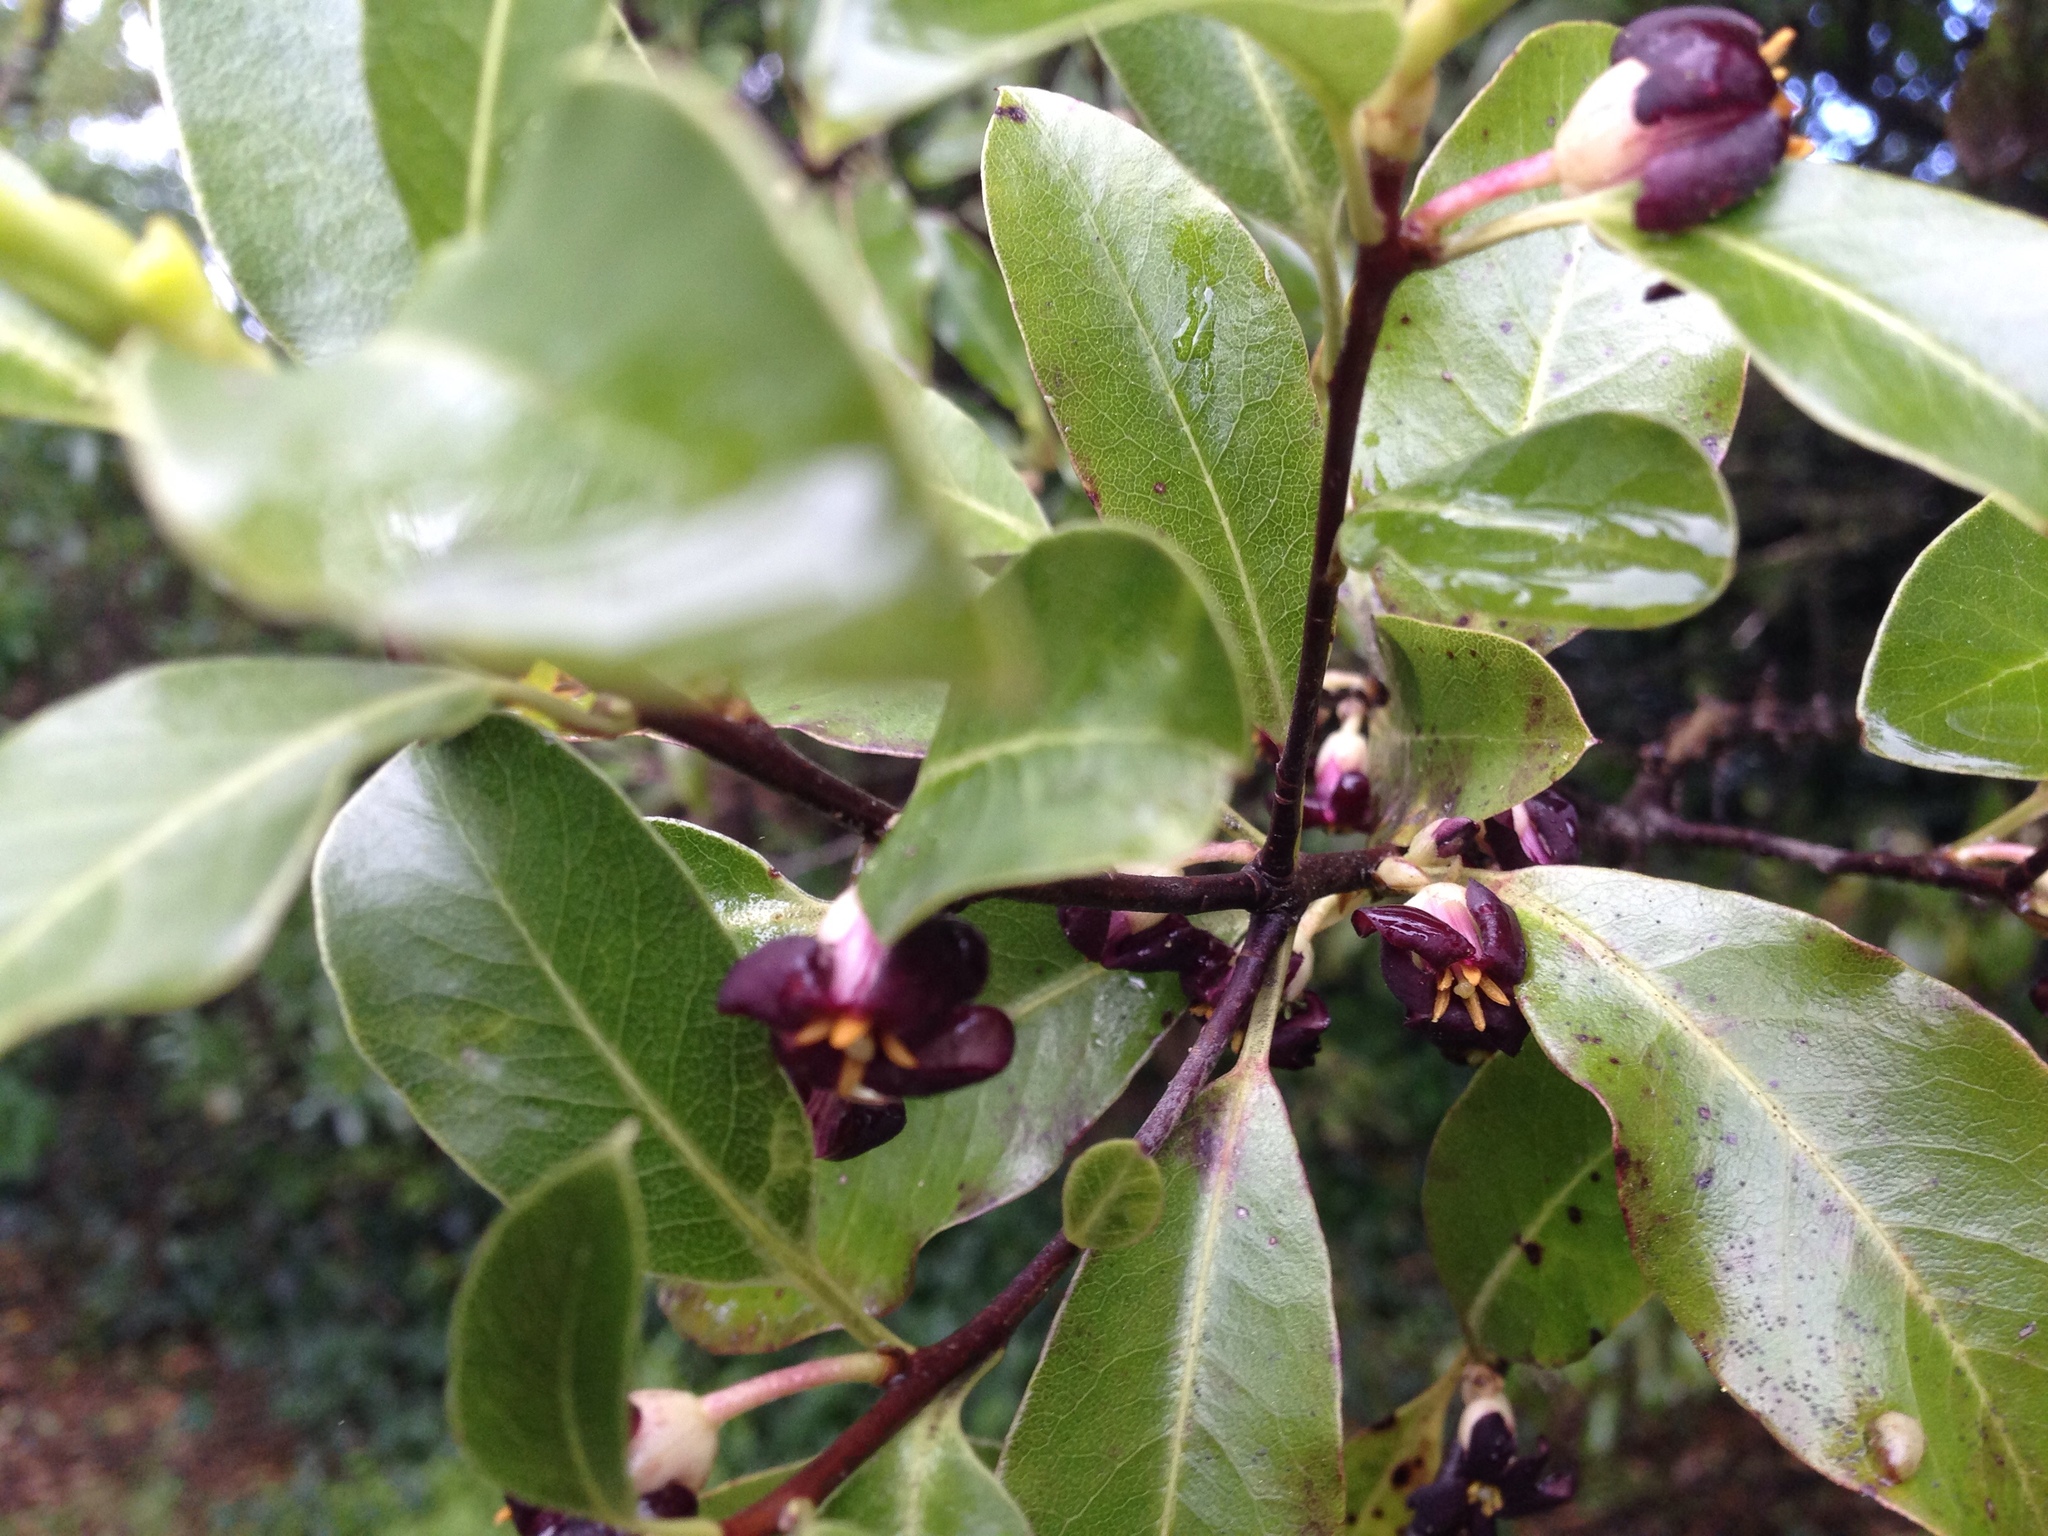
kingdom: Plantae
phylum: Tracheophyta
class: Magnoliopsida
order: Apiales
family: Pittosporaceae
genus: Pittosporum
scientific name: Pittosporum tenuifolium
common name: Kohuhu
